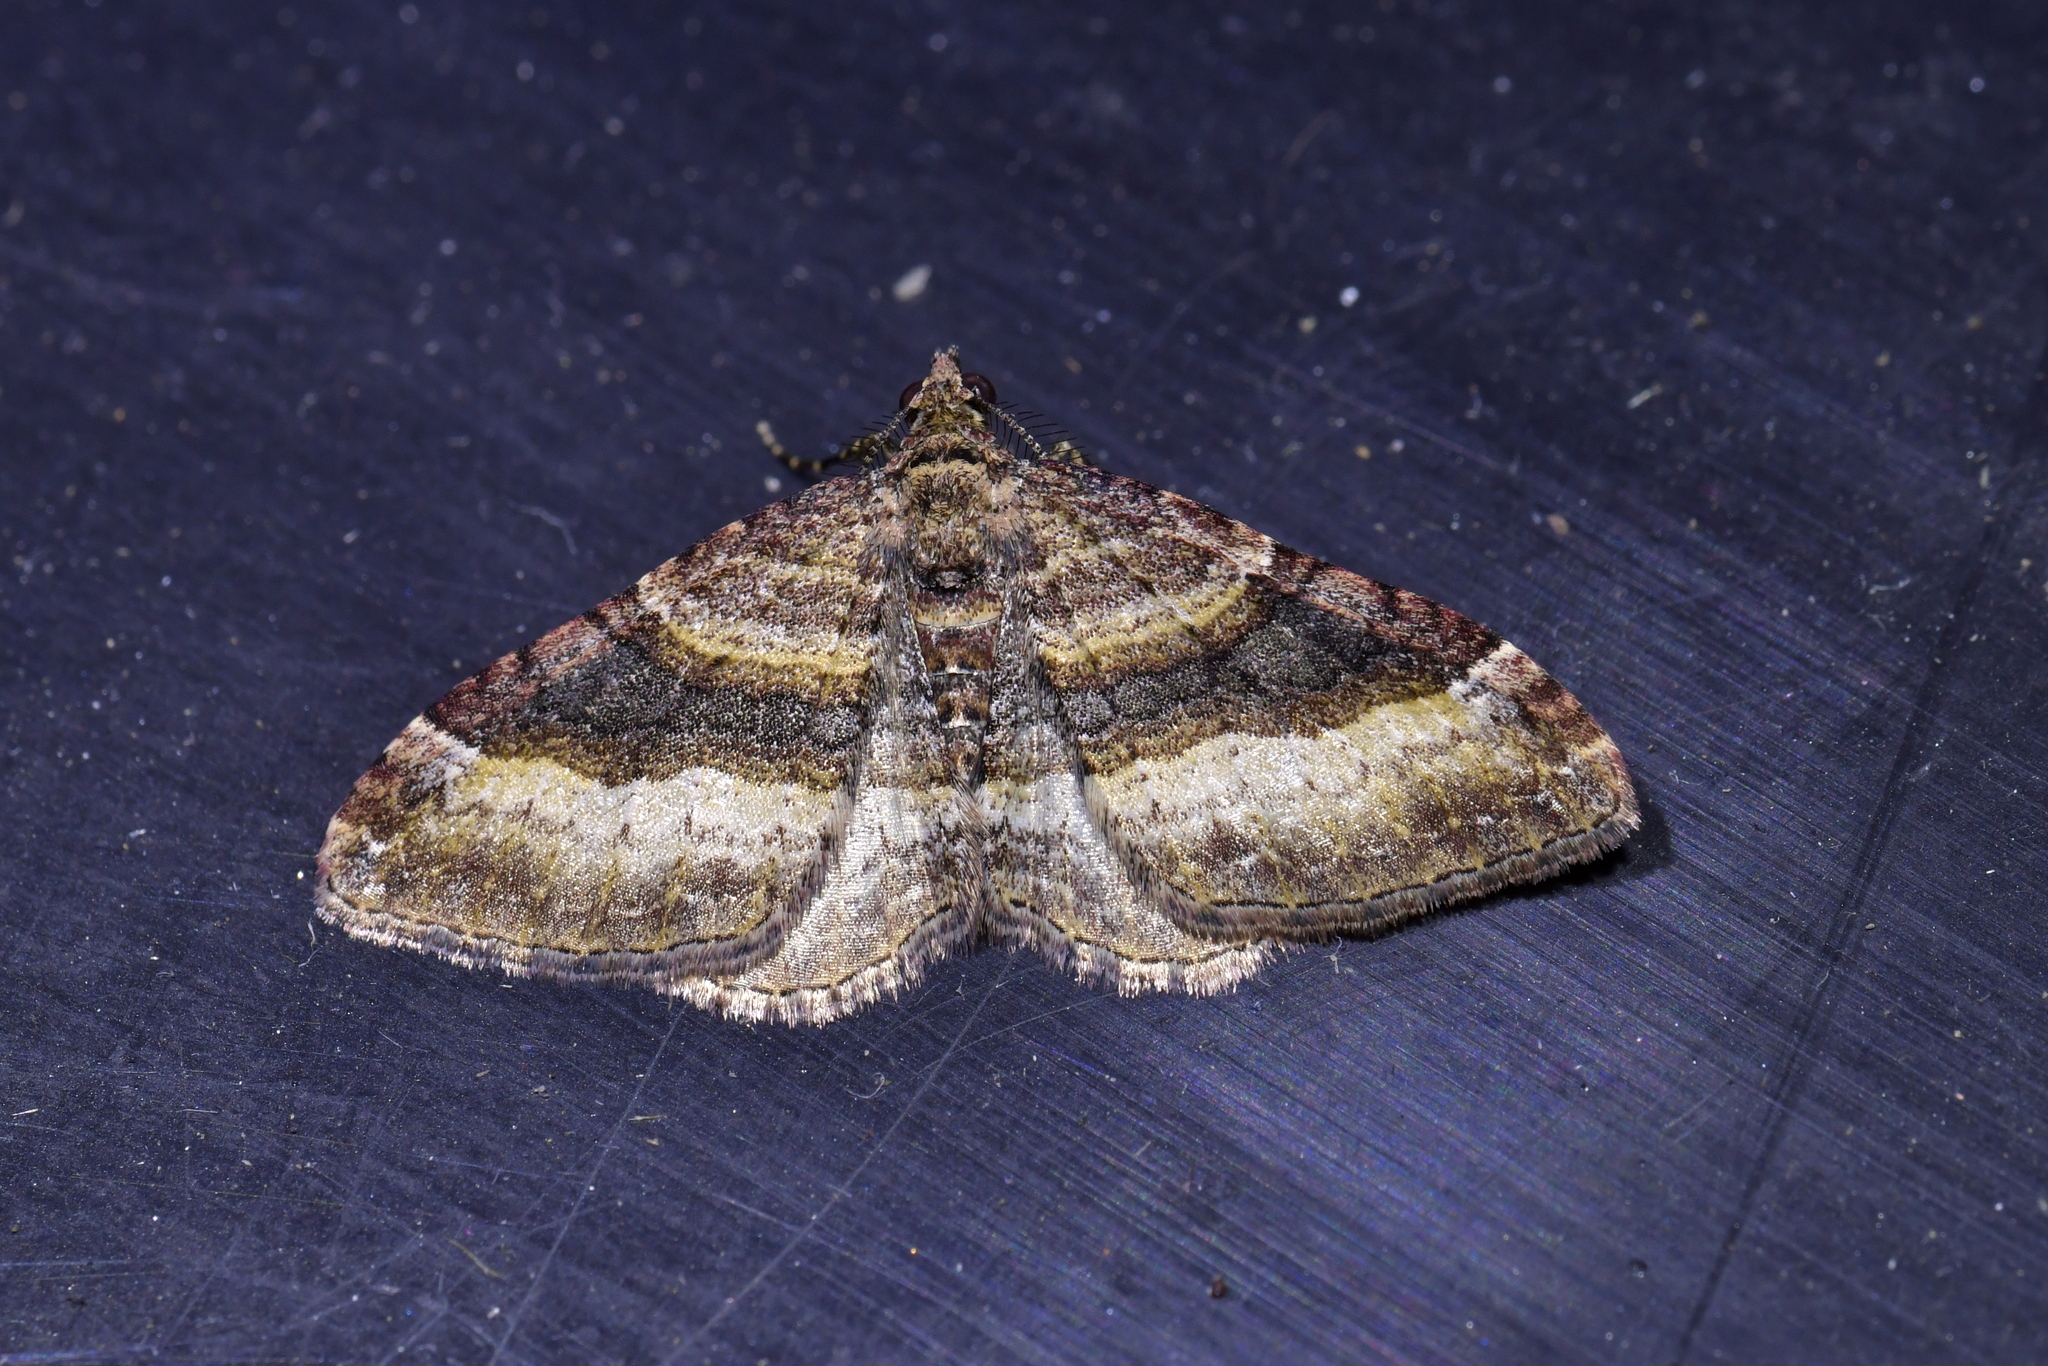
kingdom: Animalia
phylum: Arthropoda
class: Insecta
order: Lepidoptera
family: Geometridae
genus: Epyaxa
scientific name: Epyaxa lucidata
